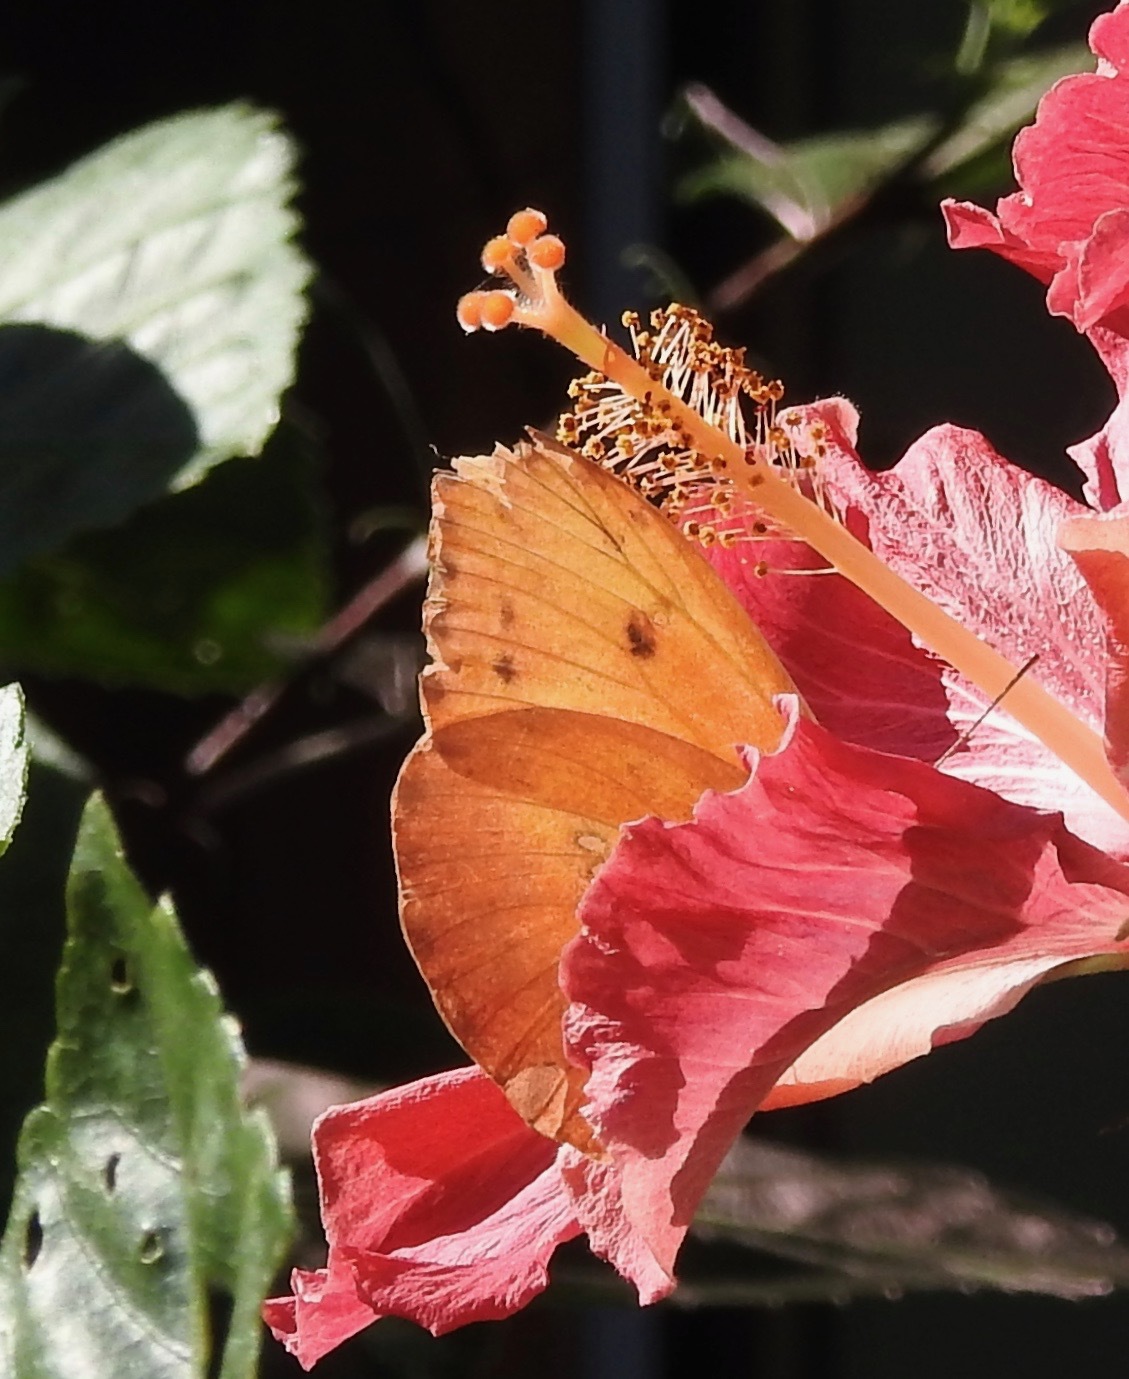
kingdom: Animalia
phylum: Arthropoda
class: Insecta
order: Lepidoptera
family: Pieridae
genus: Phoebis
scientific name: Phoebis philea
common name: Orange-barred giant sulphur
